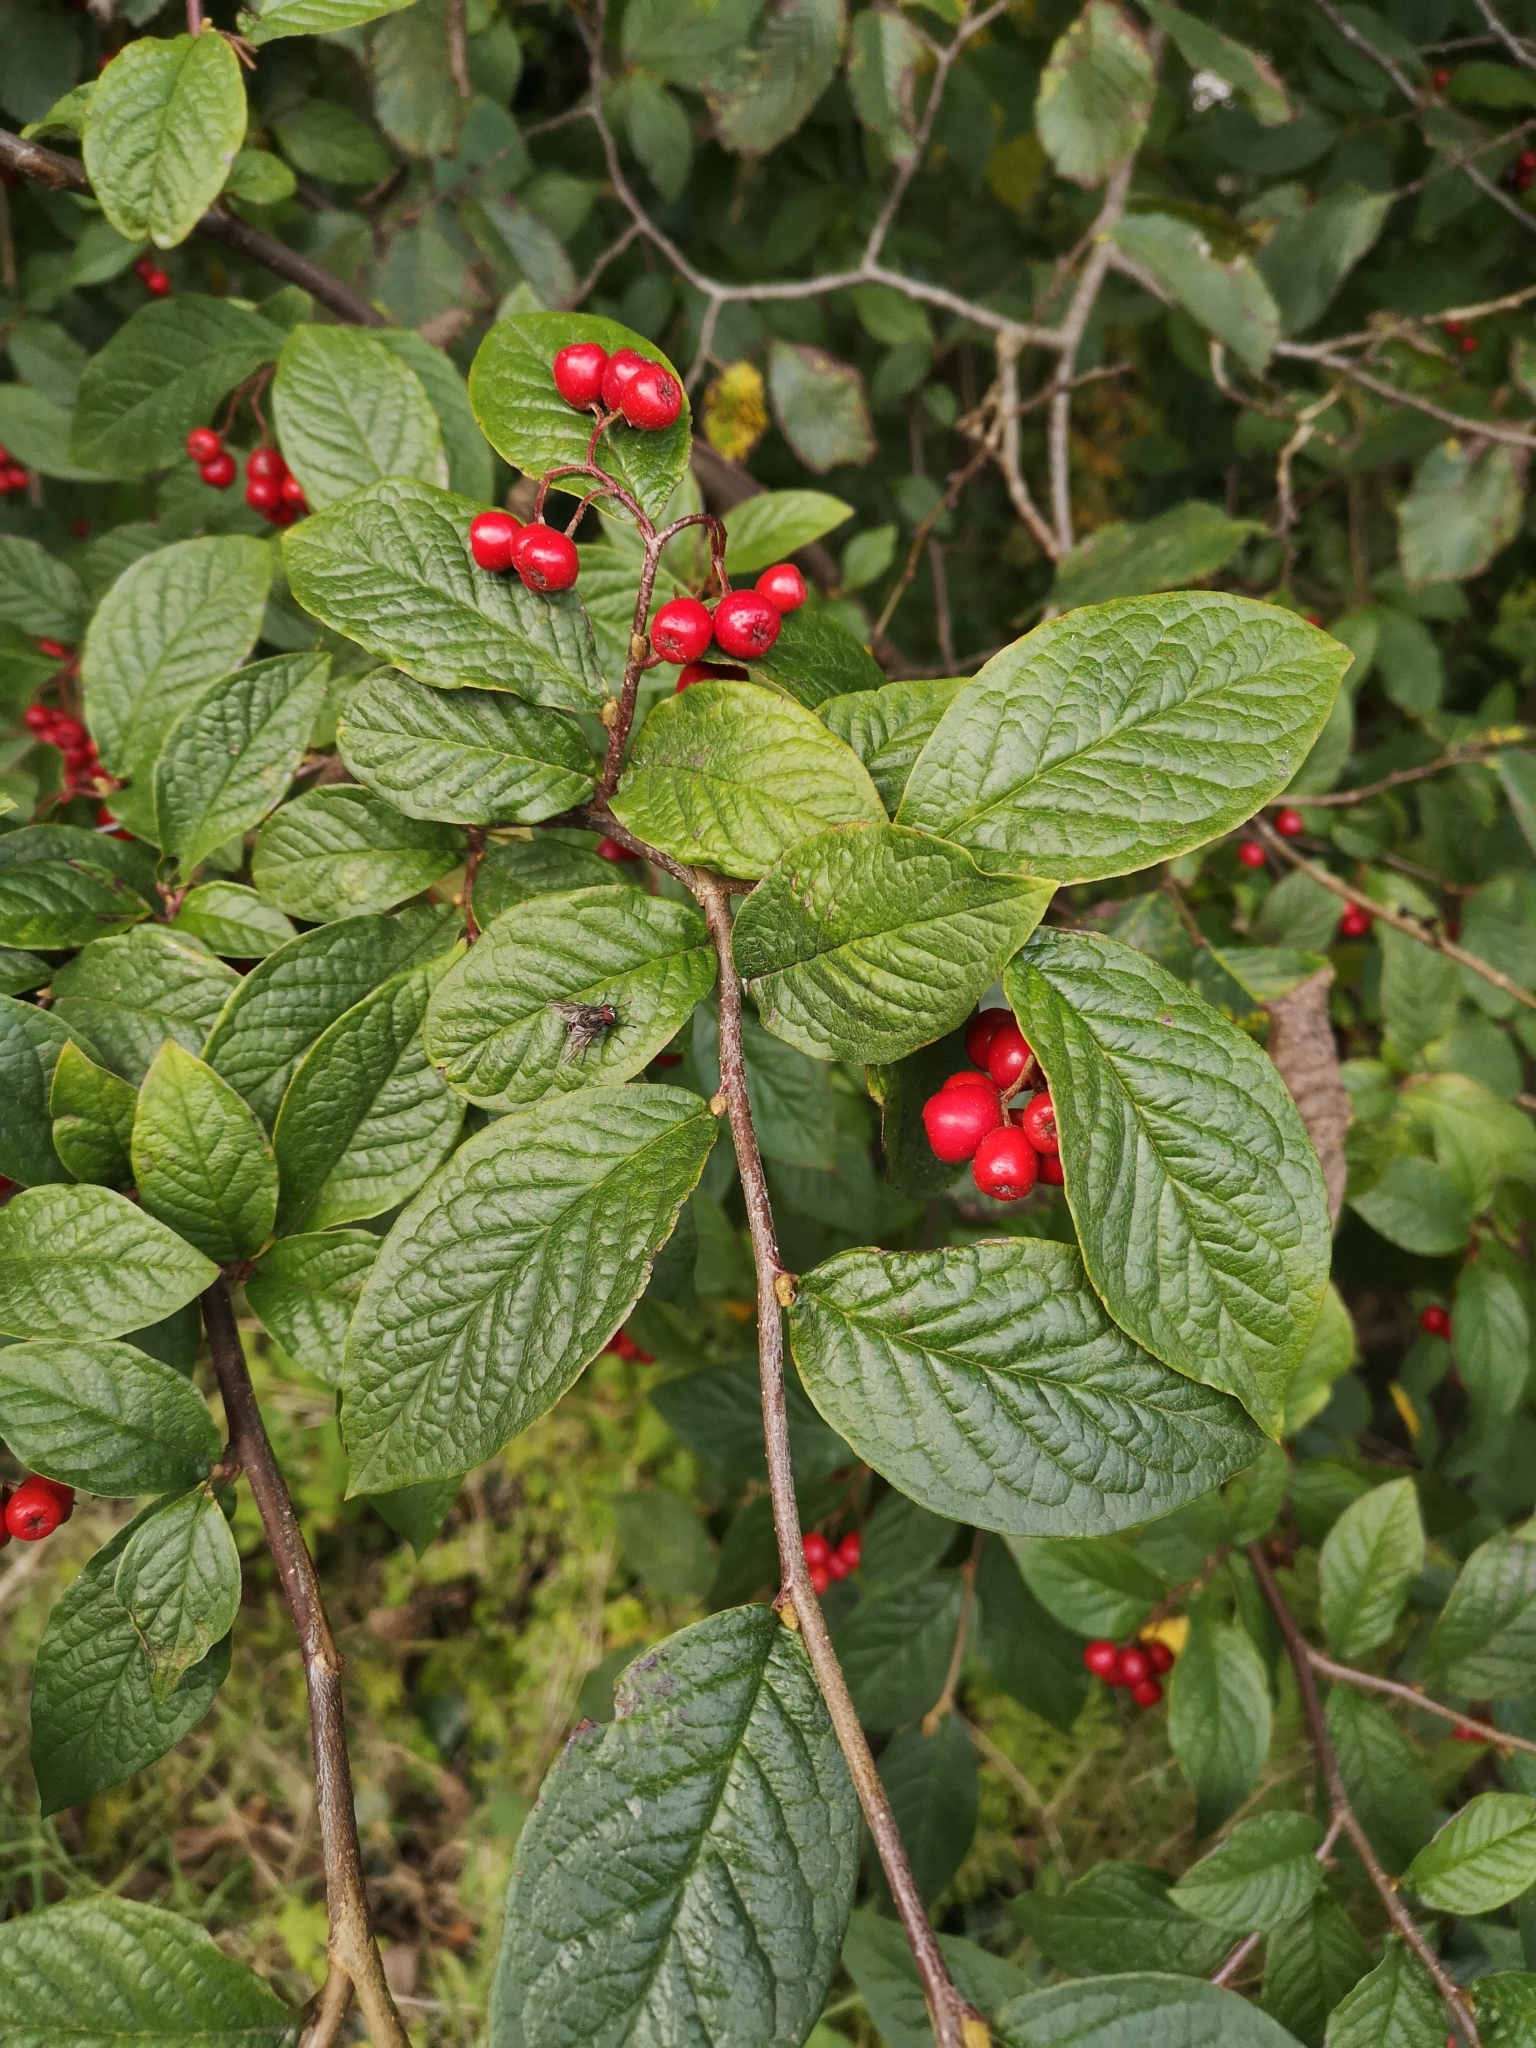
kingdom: Plantae
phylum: Tracheophyta
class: Magnoliopsida
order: Rosales
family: Rosaceae
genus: Cotoneaster
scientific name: Cotoneaster bullatus
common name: Hollyberry cotoneaster
